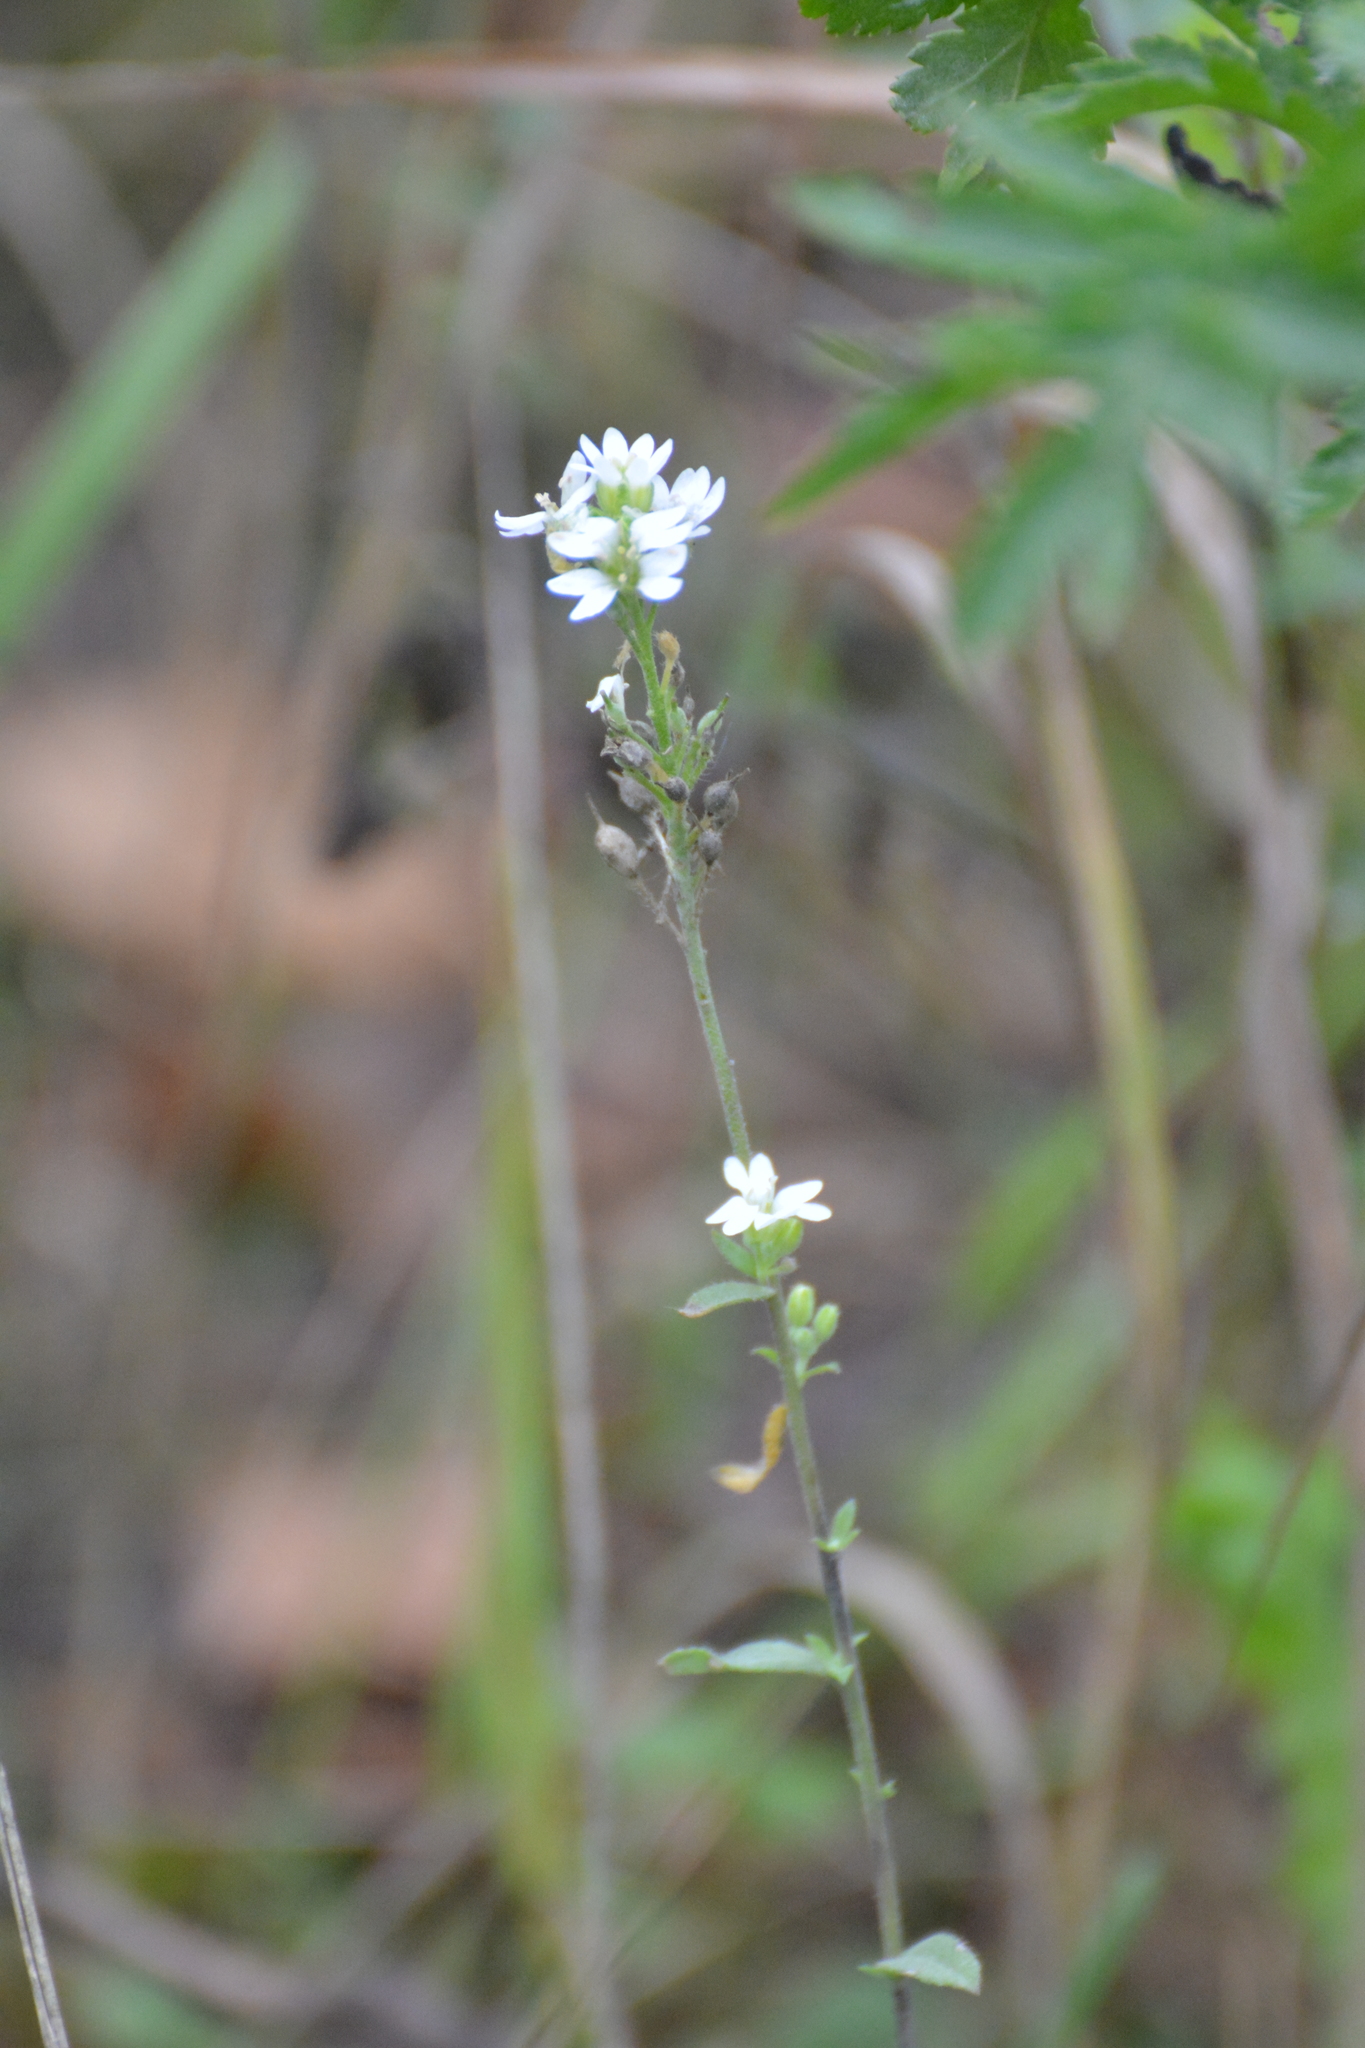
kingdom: Plantae
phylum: Tracheophyta
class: Magnoliopsida
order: Brassicales
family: Brassicaceae
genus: Berteroa
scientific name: Berteroa incana
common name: Hoary alison
